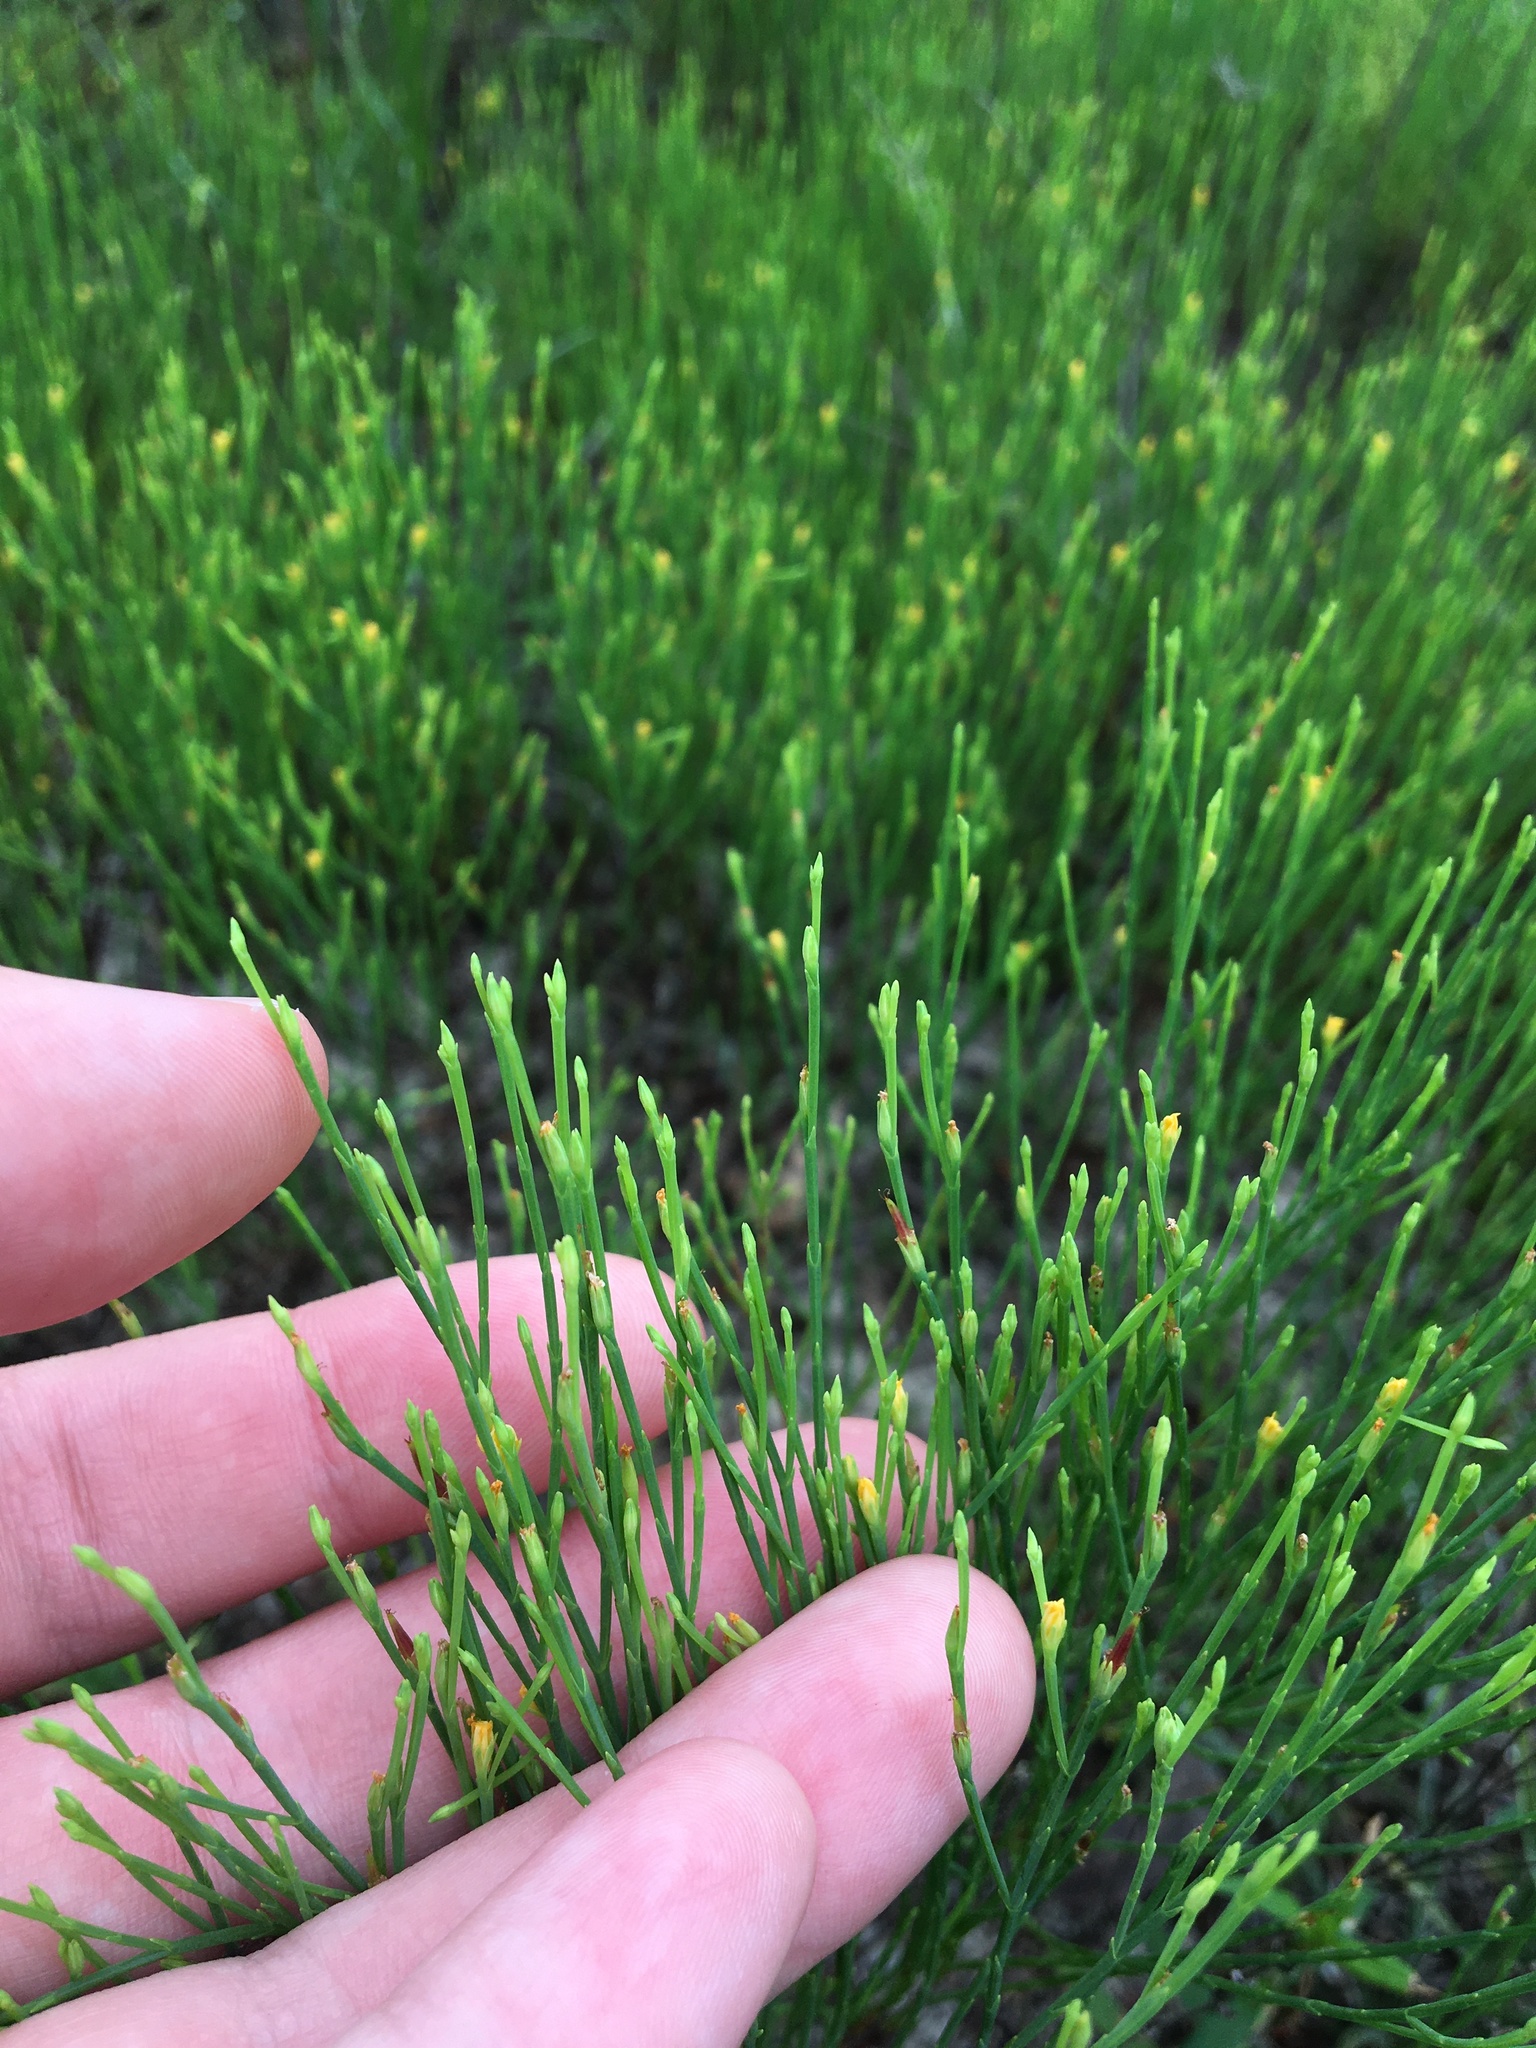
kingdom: Plantae
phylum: Tracheophyta
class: Magnoliopsida
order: Malpighiales
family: Hypericaceae
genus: Hypericum
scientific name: Hypericum gentianoides
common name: Gentian-leaved st. john's-wort
